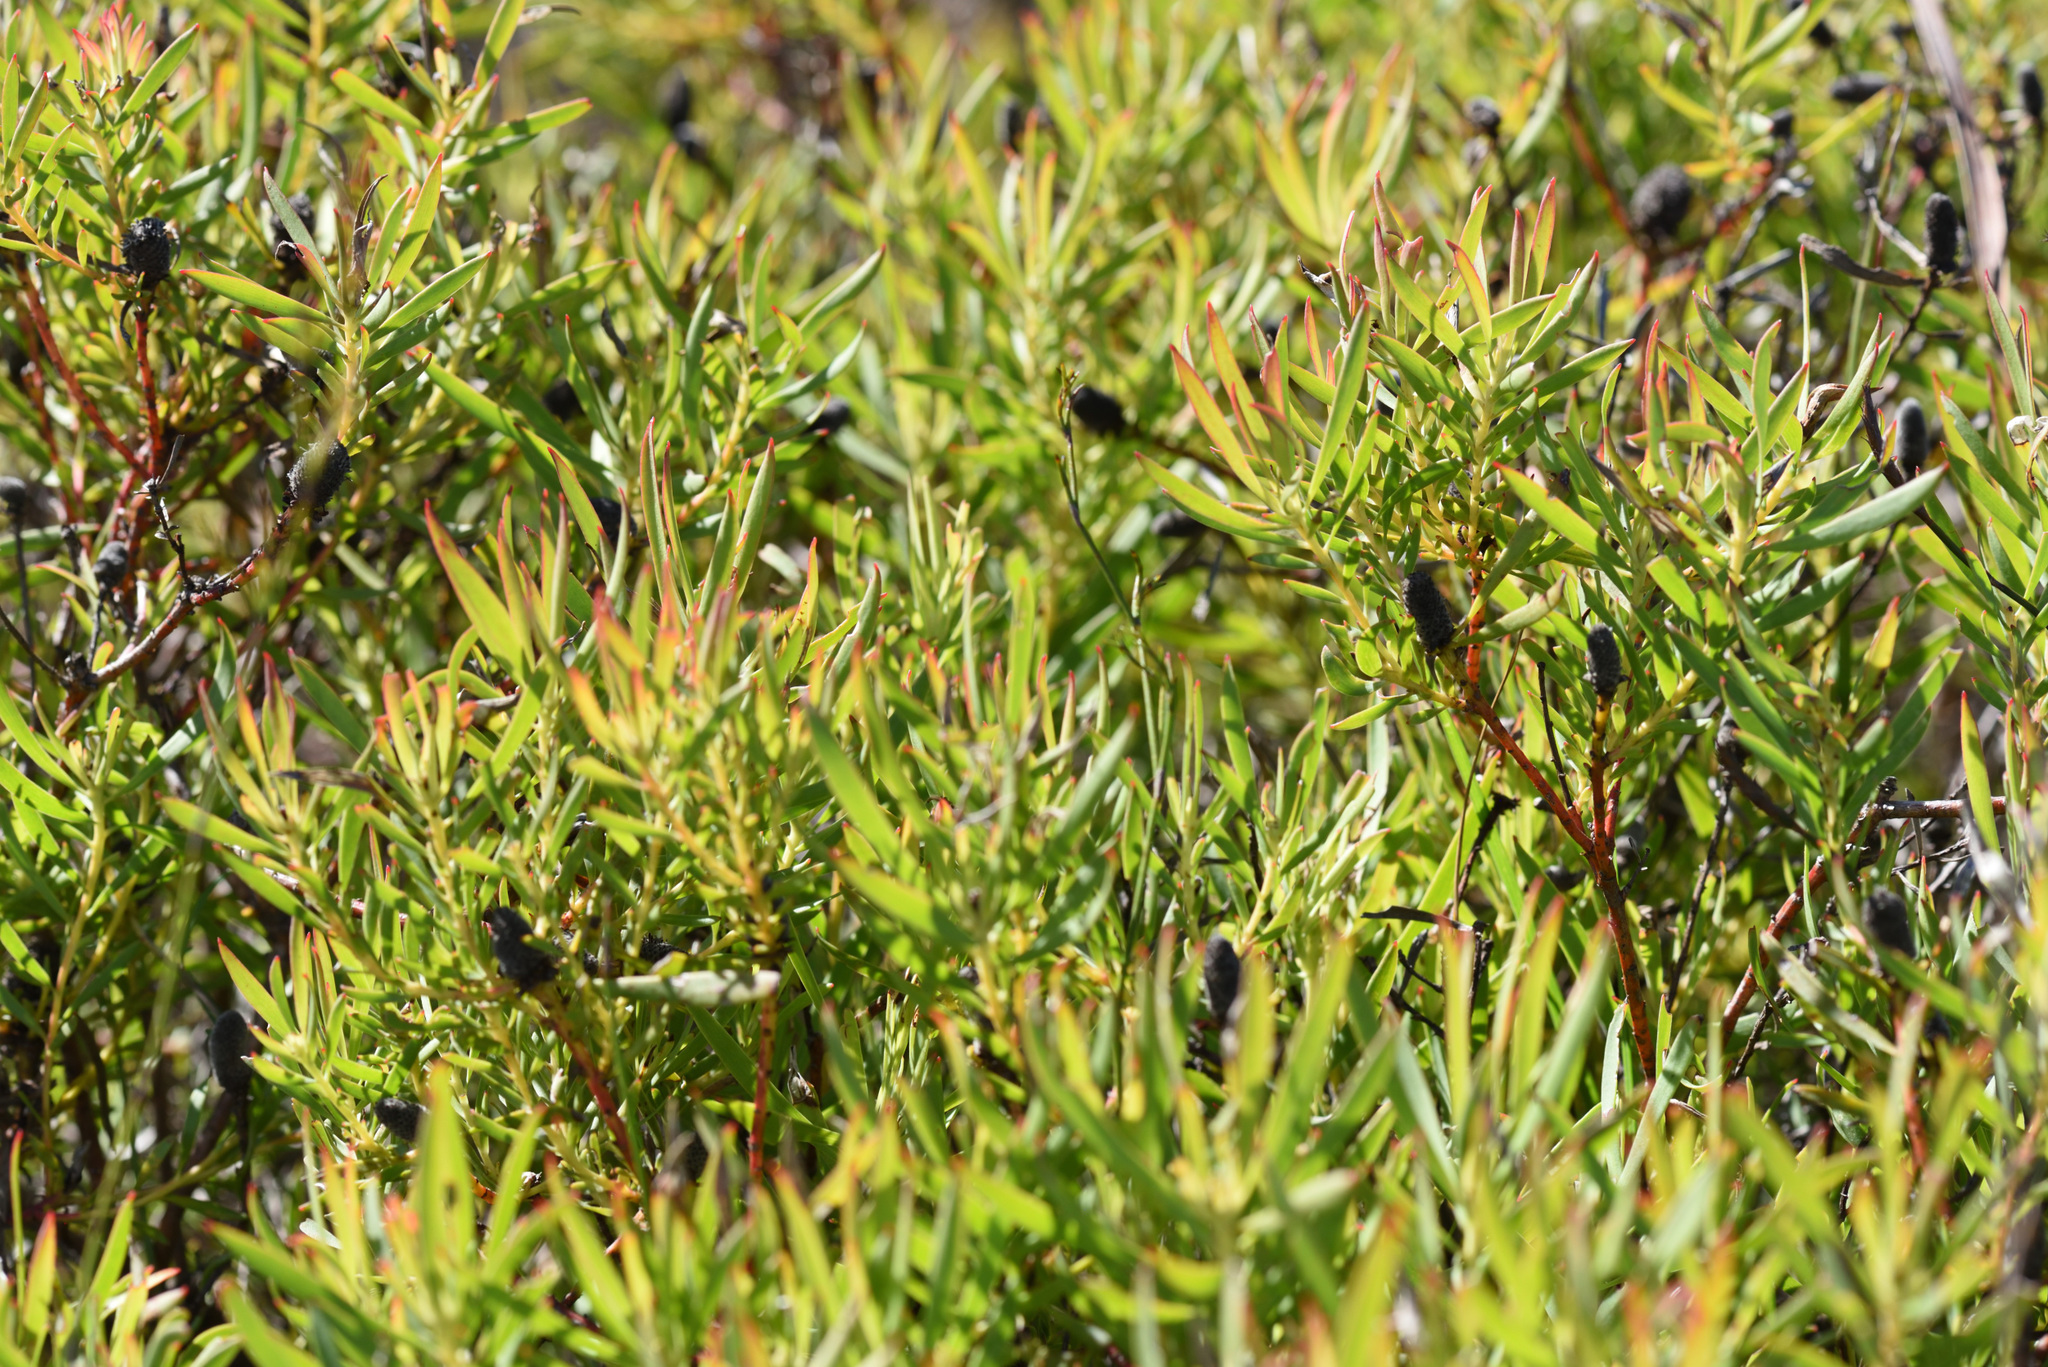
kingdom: Plantae
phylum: Tracheophyta
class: Magnoliopsida
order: Proteales
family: Proteaceae
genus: Leucadendron
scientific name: Leucadendron salignum
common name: Common sunshine conebush
